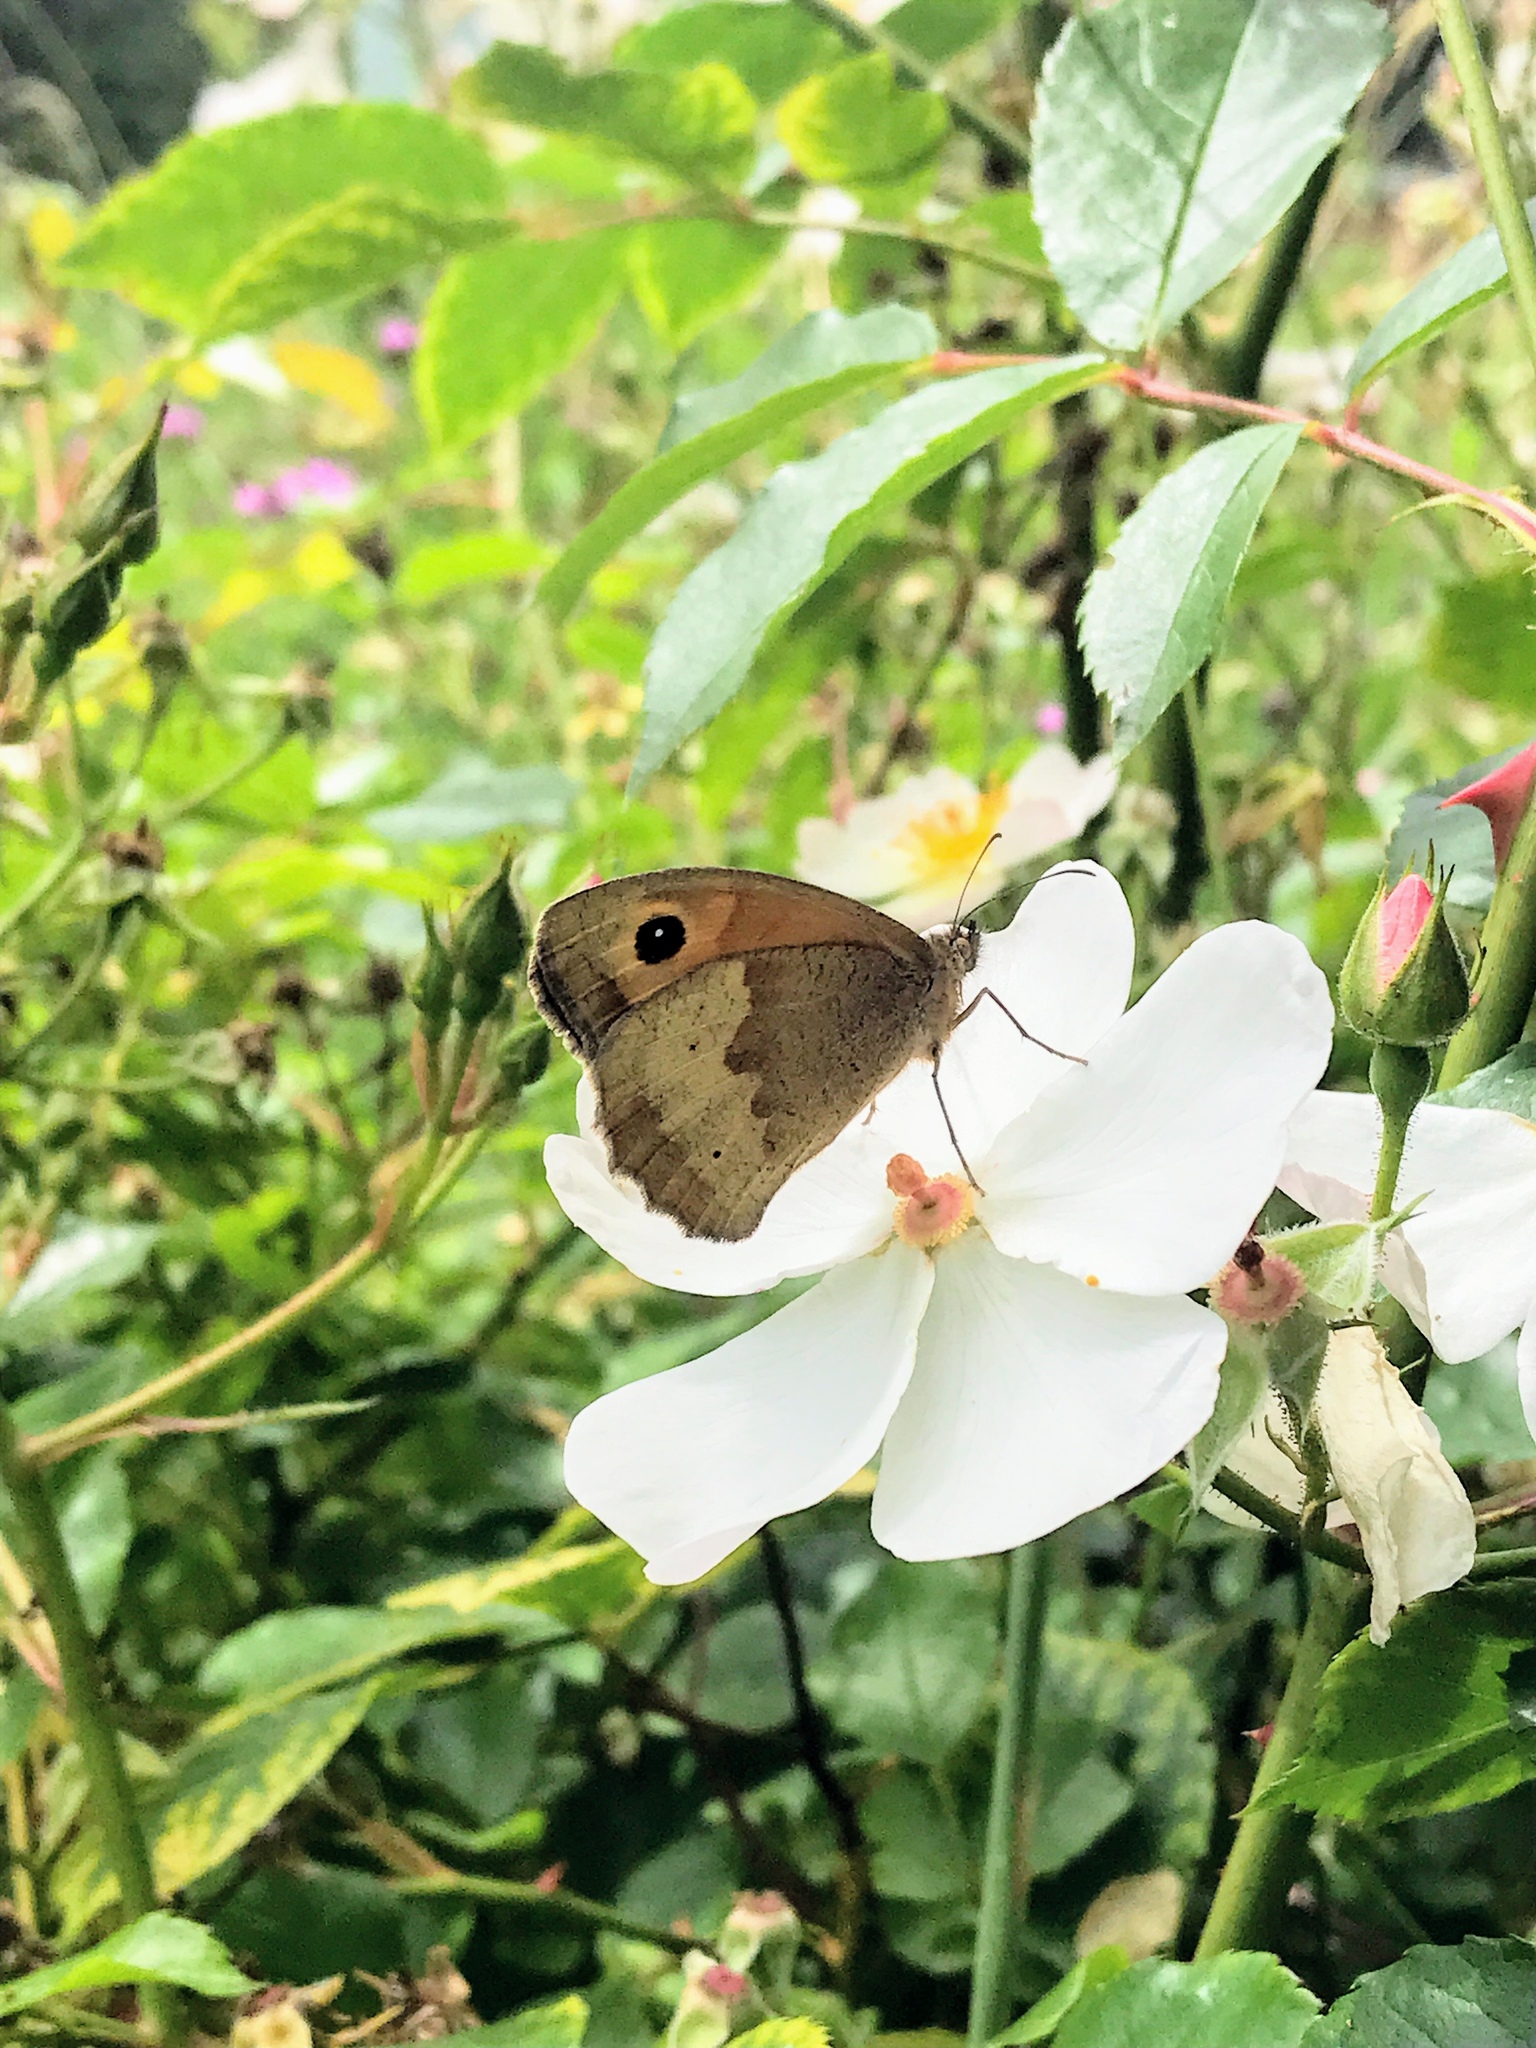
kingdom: Animalia
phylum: Arthropoda
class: Insecta
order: Lepidoptera
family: Nymphalidae
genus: Maniola
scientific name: Maniola jurtina
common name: Meadow brown
